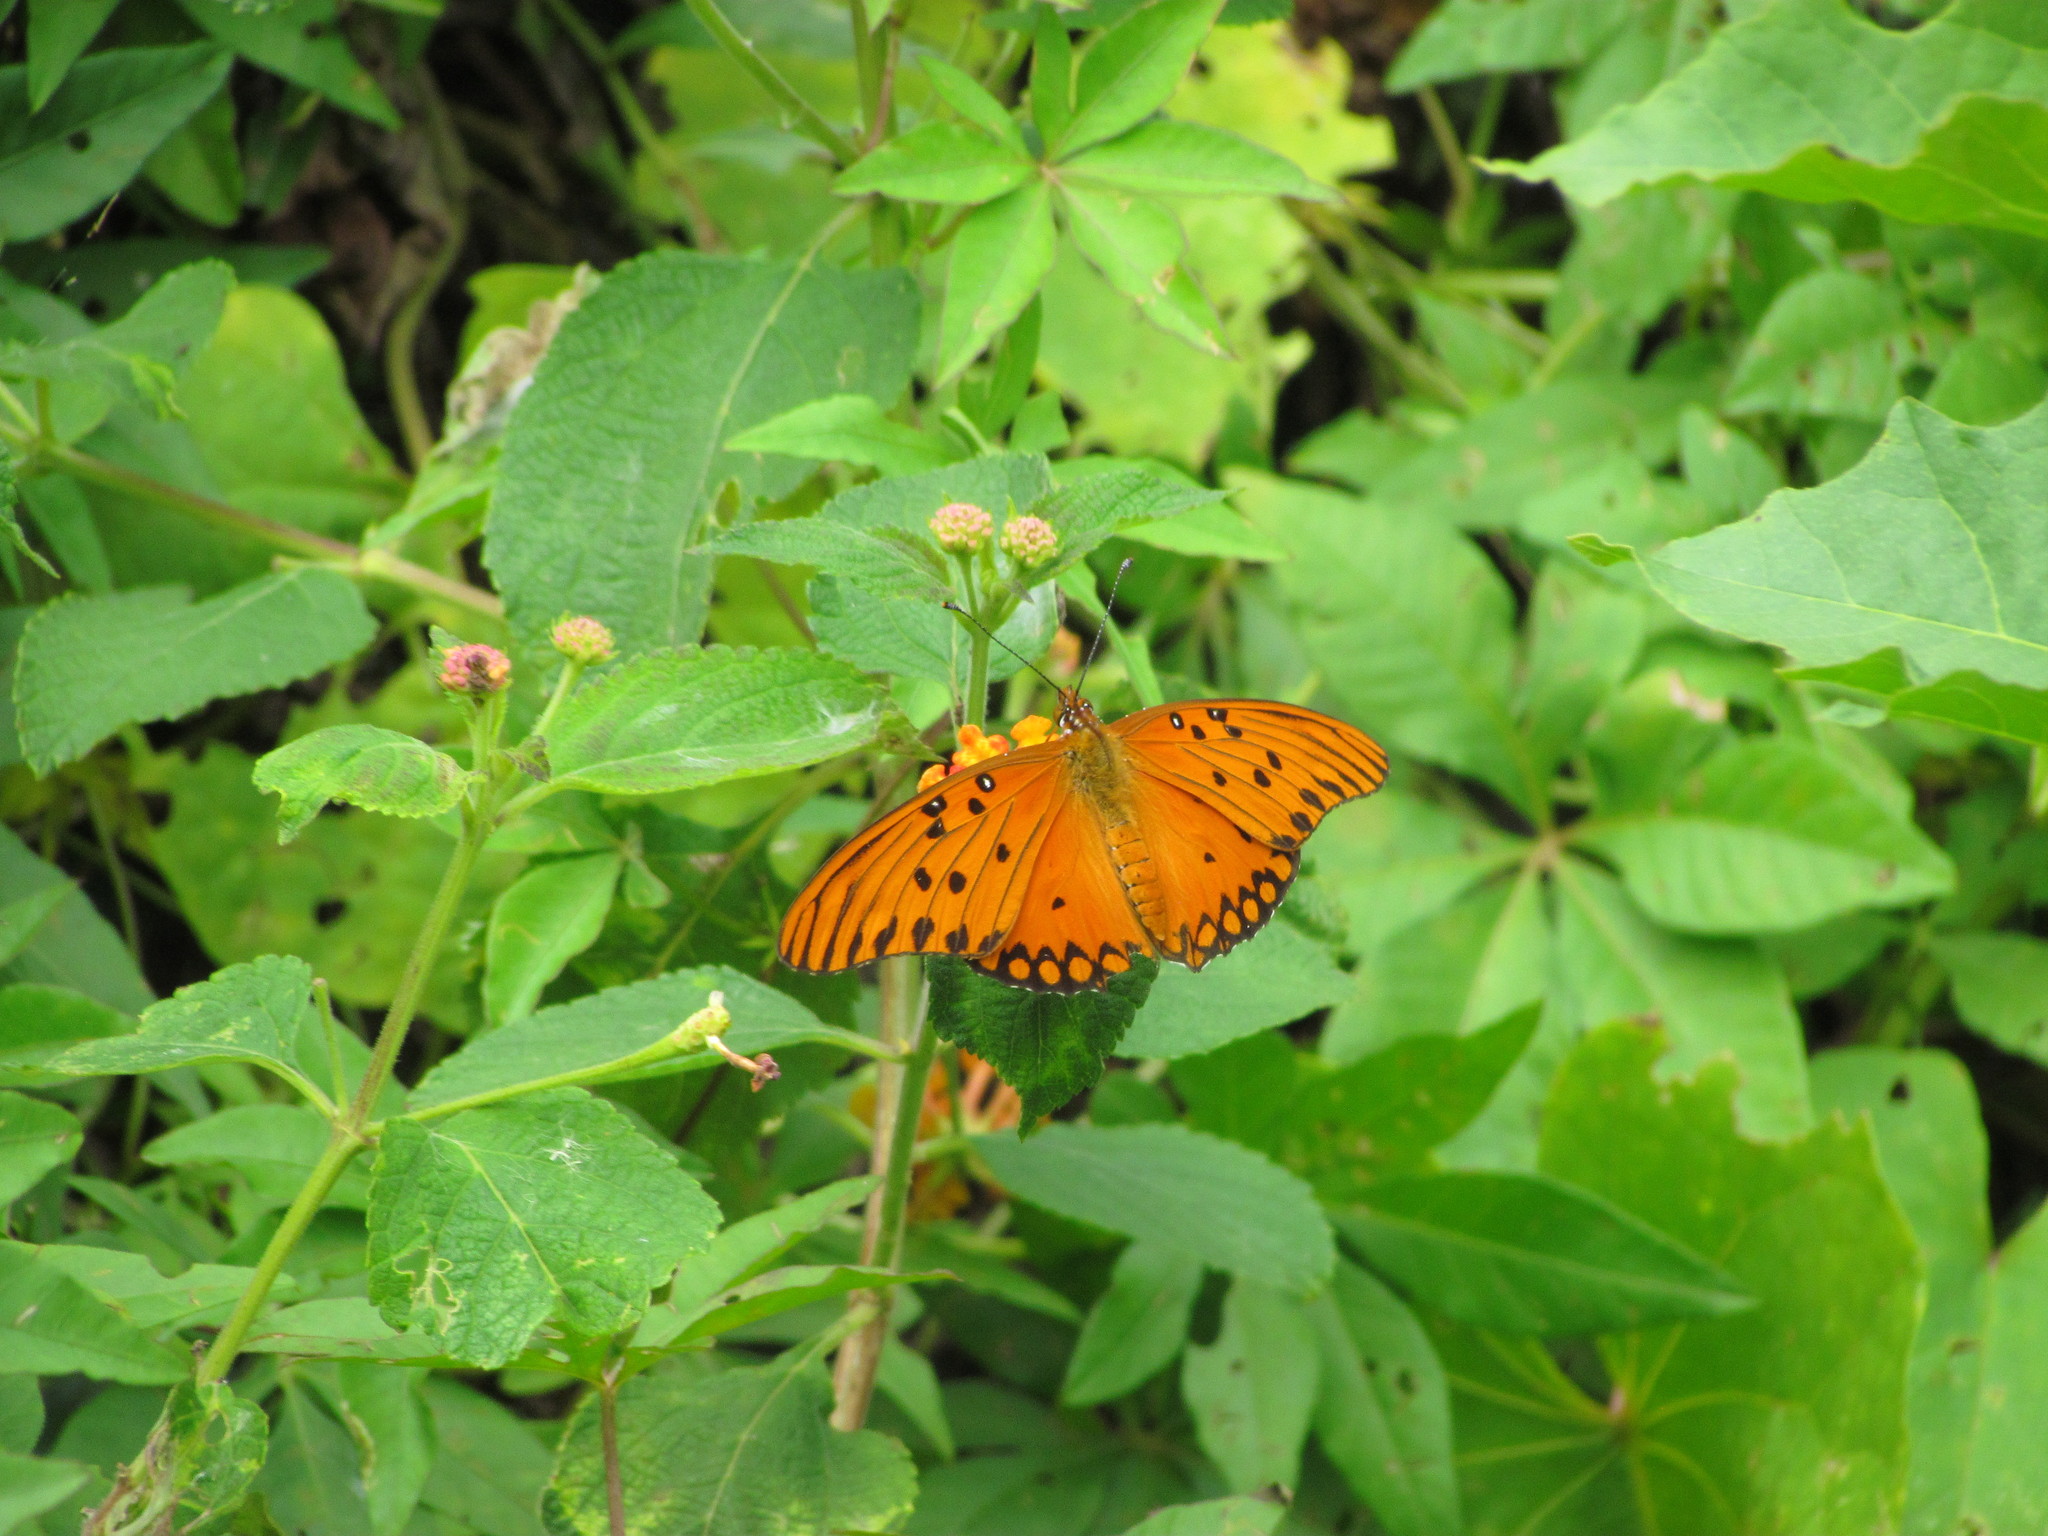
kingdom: Animalia
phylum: Arthropoda
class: Insecta
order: Lepidoptera
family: Nymphalidae
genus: Dione
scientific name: Dione vanillae
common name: Gulf fritillary
